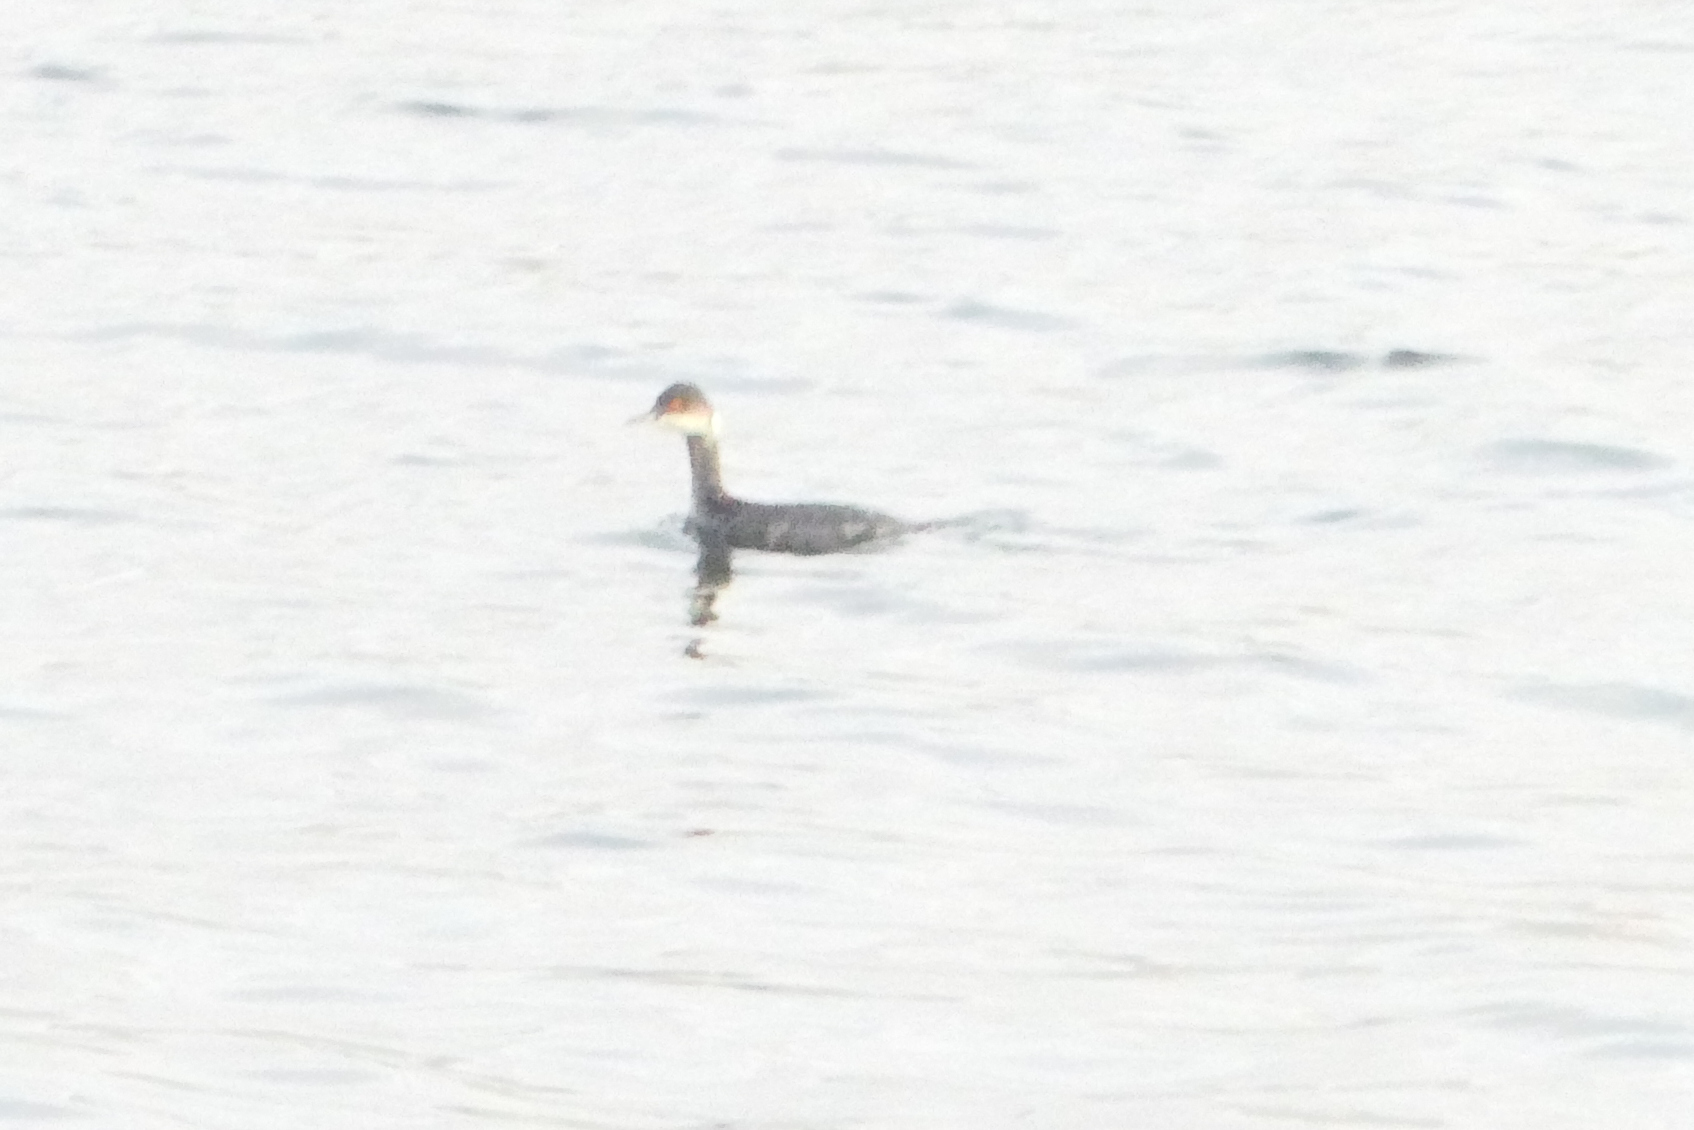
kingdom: Animalia
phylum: Chordata
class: Aves
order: Podicipediformes
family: Podicipedidae
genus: Podiceps
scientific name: Podiceps nigricollis
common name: Black-necked grebe
